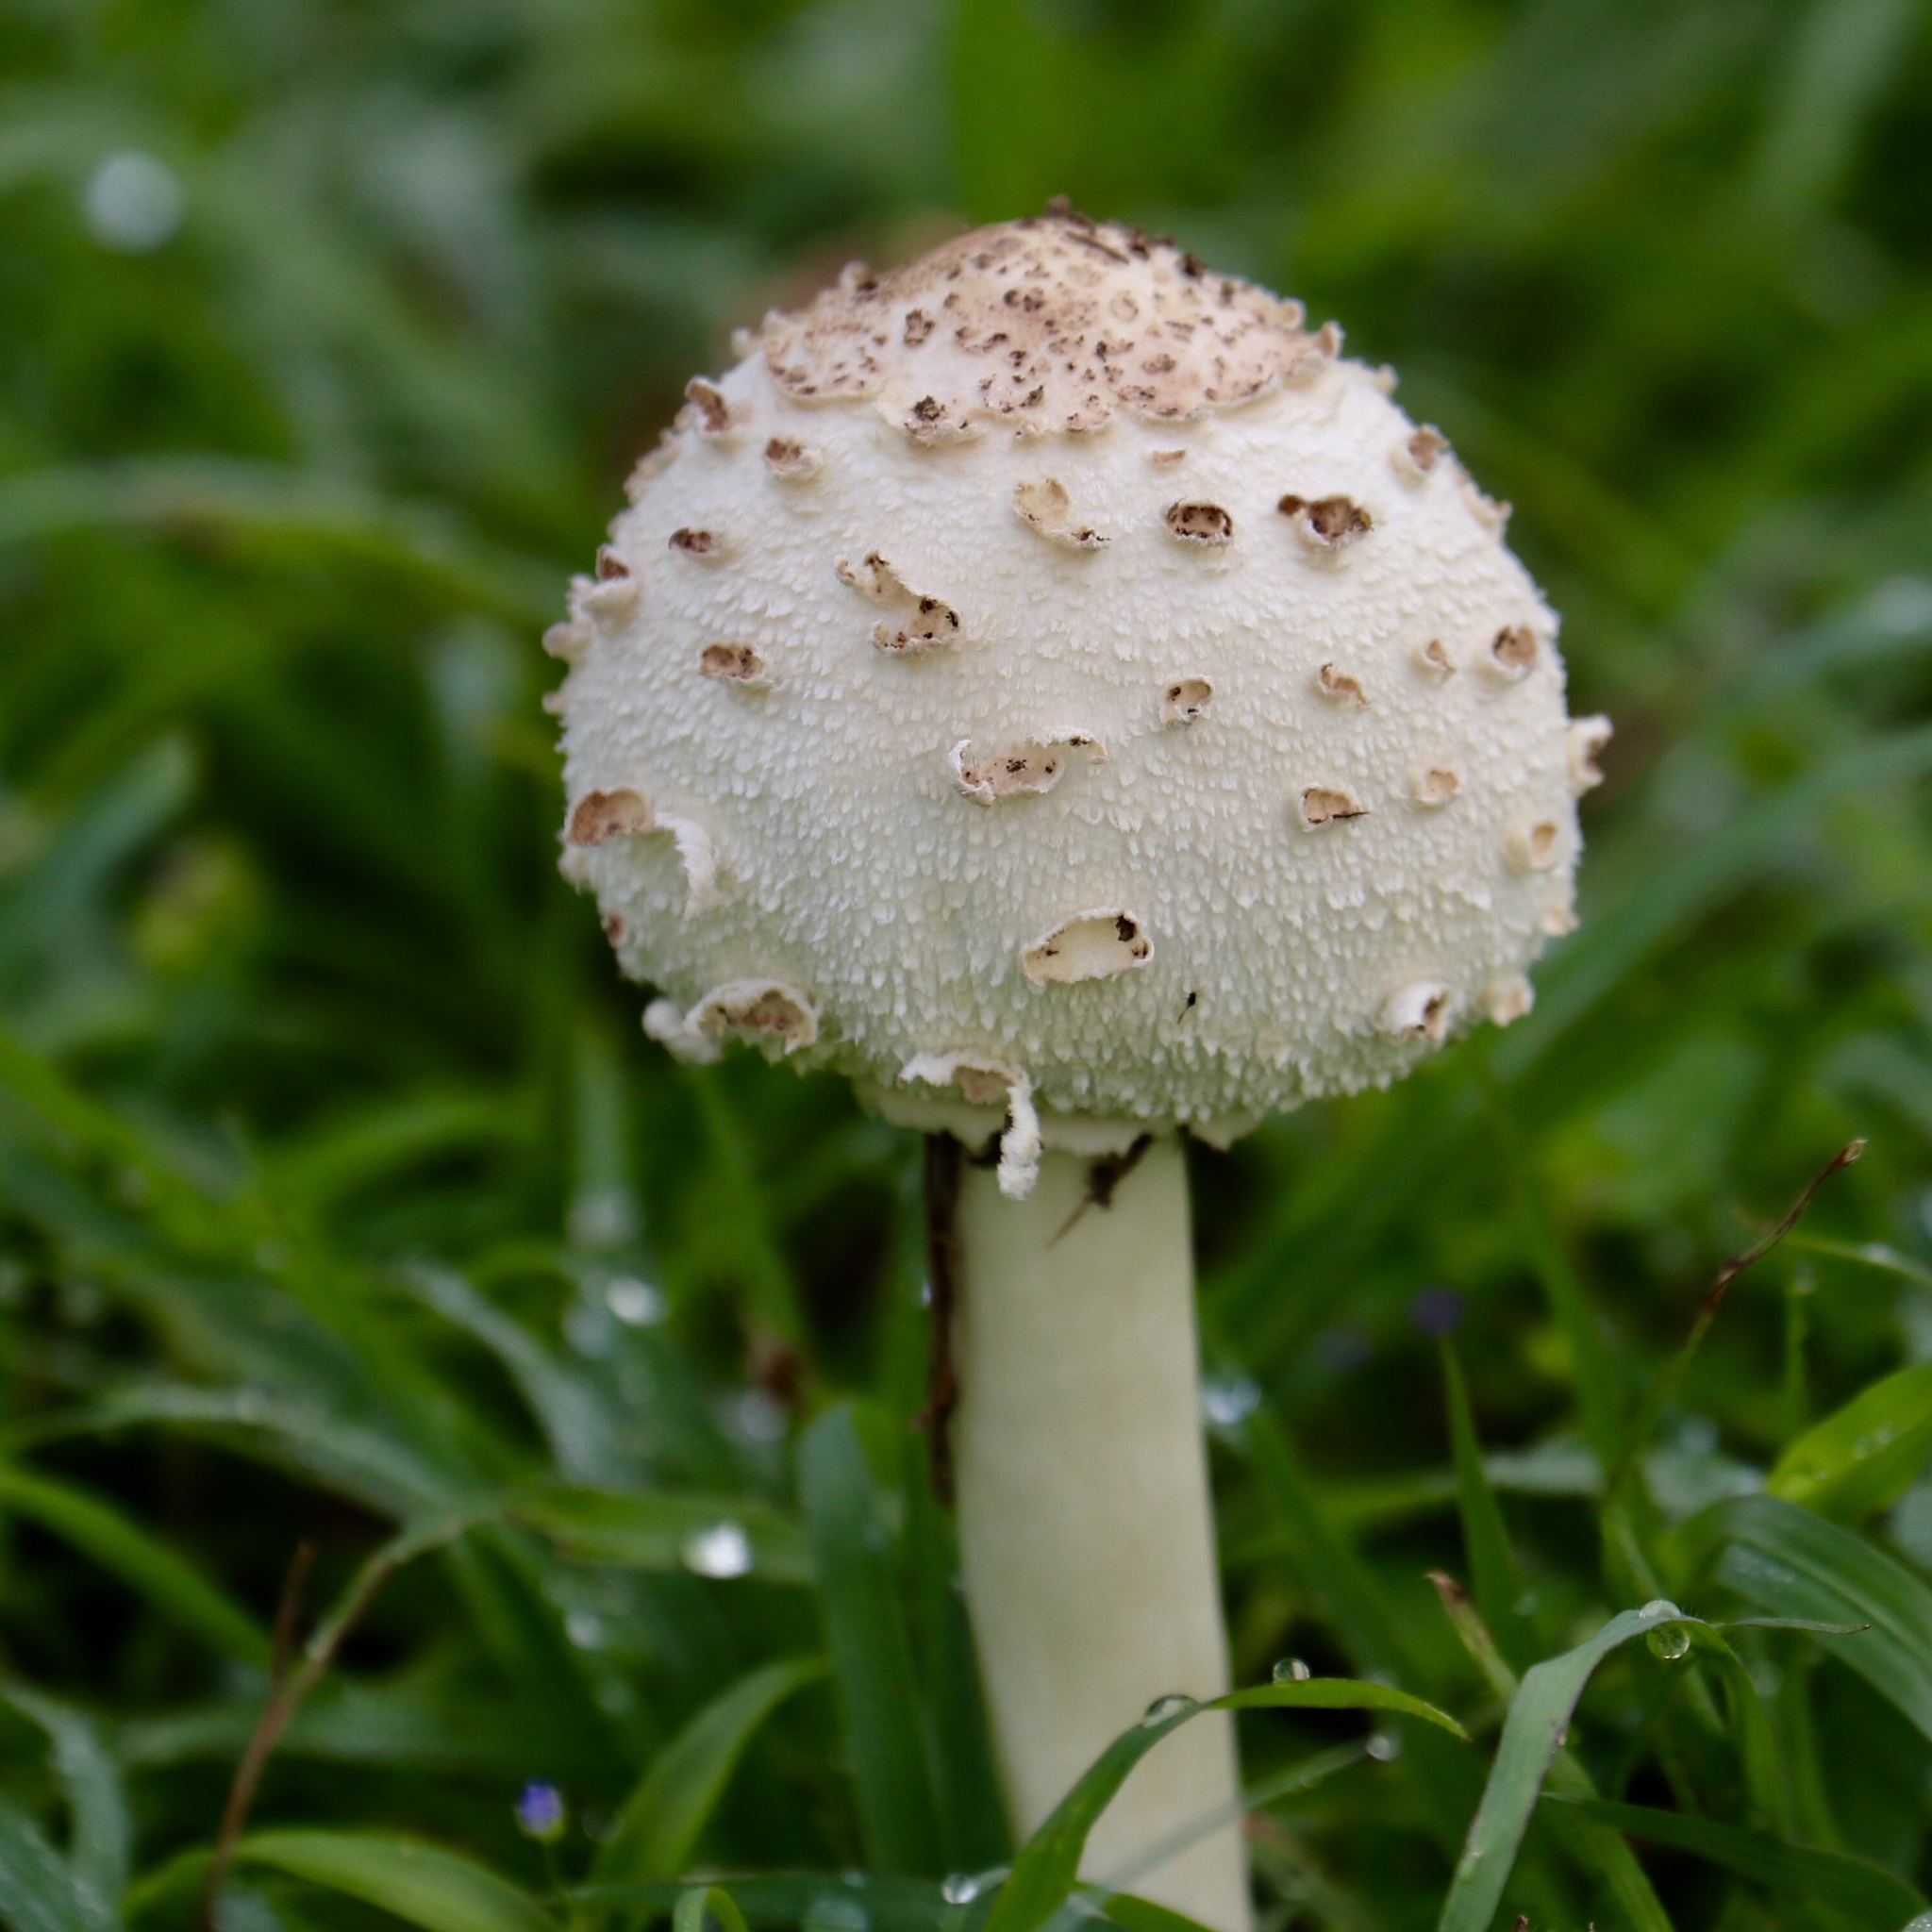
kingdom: Fungi
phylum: Basidiomycota
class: Agaricomycetes
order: Agaricales
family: Agaricaceae
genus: Chlorophyllum
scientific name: Chlorophyllum molybdites
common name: False parasol
